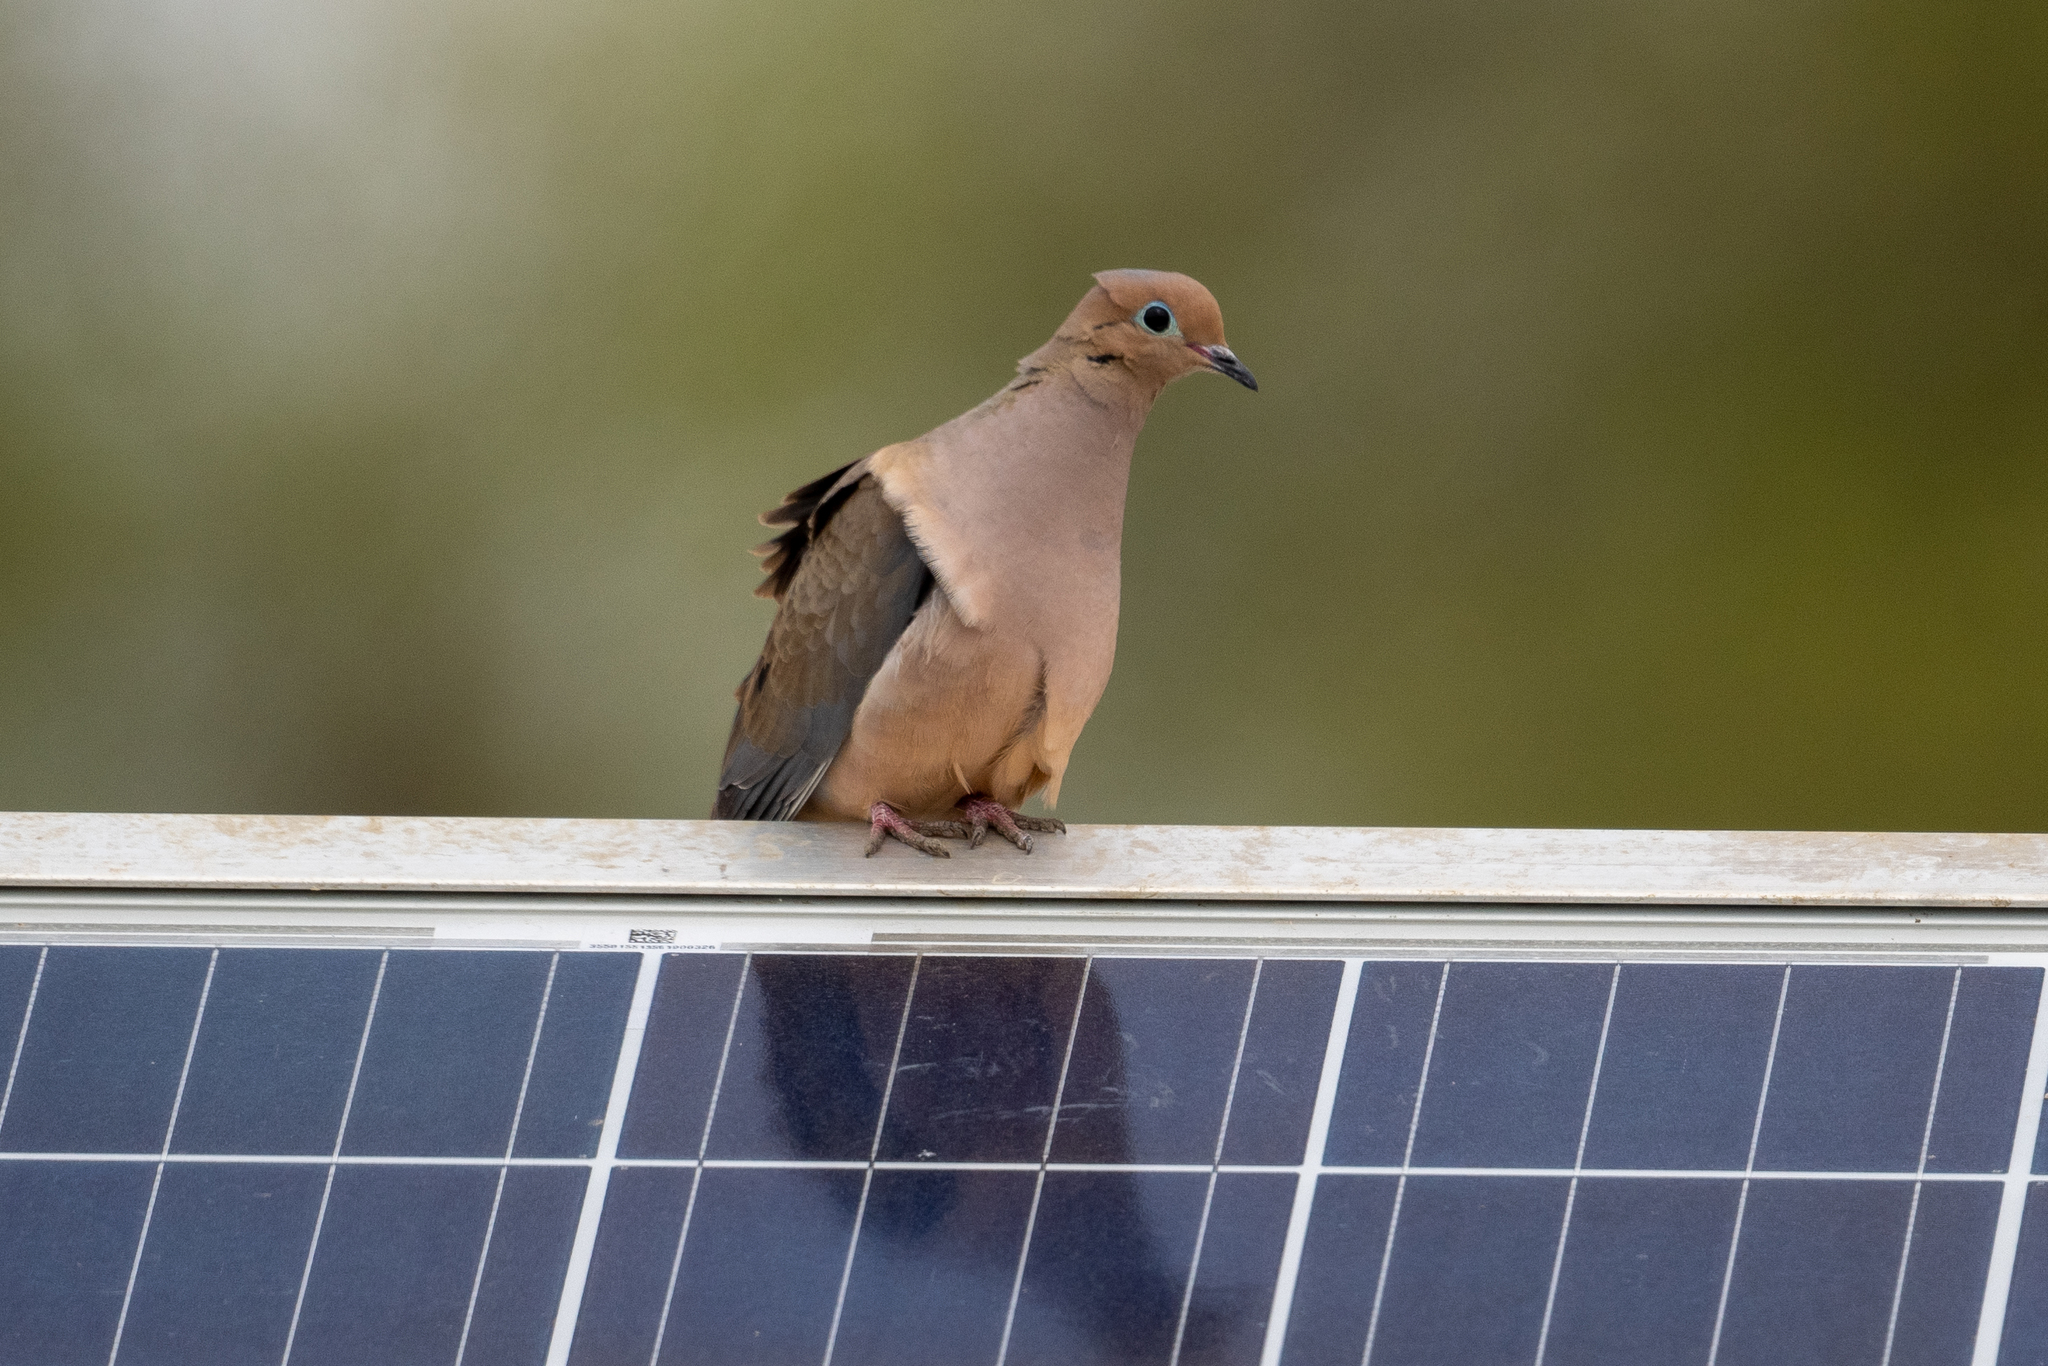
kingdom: Animalia
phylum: Chordata
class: Aves
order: Columbiformes
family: Columbidae
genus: Zenaida
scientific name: Zenaida macroura
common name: Mourning dove
